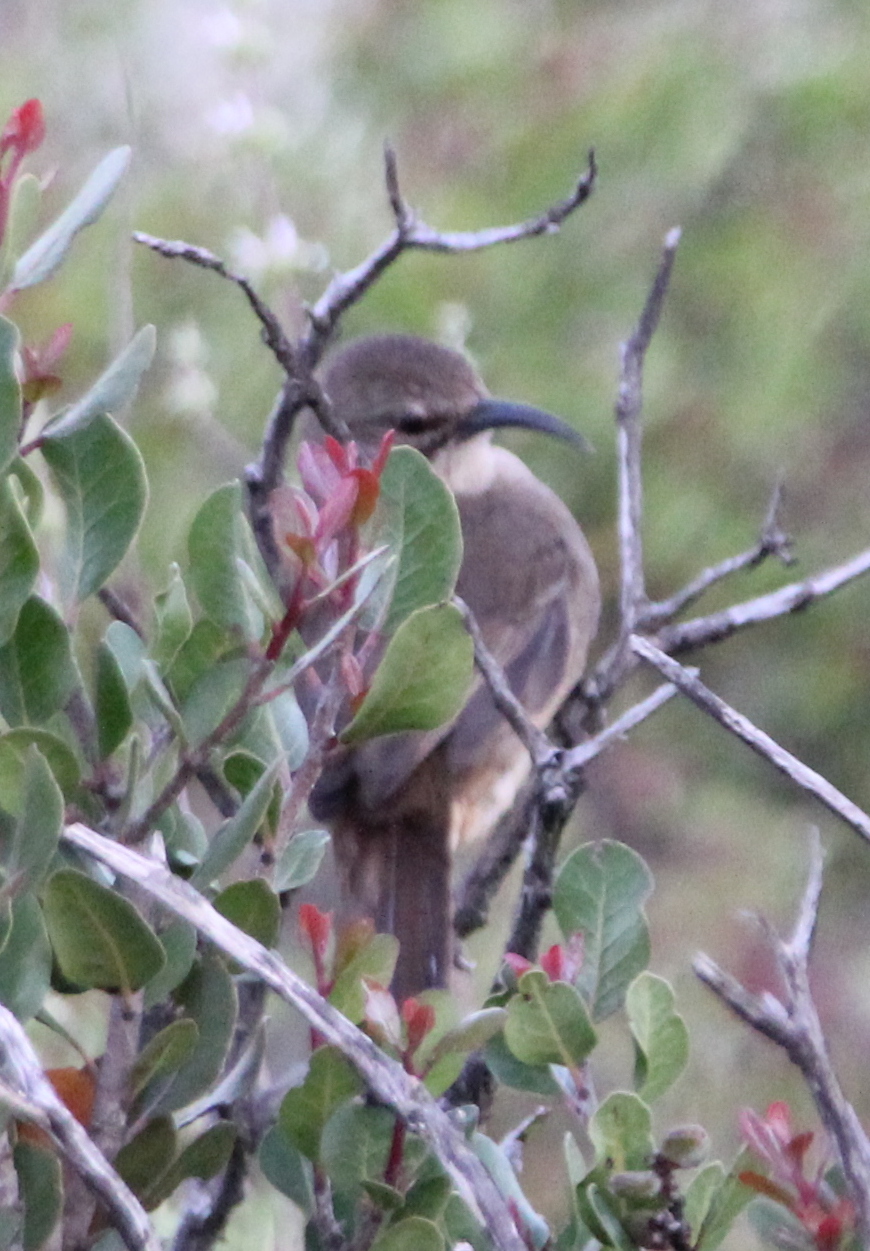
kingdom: Animalia
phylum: Chordata
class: Aves
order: Passeriformes
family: Mimidae
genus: Toxostoma
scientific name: Toxostoma redivivum
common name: California thrasher
